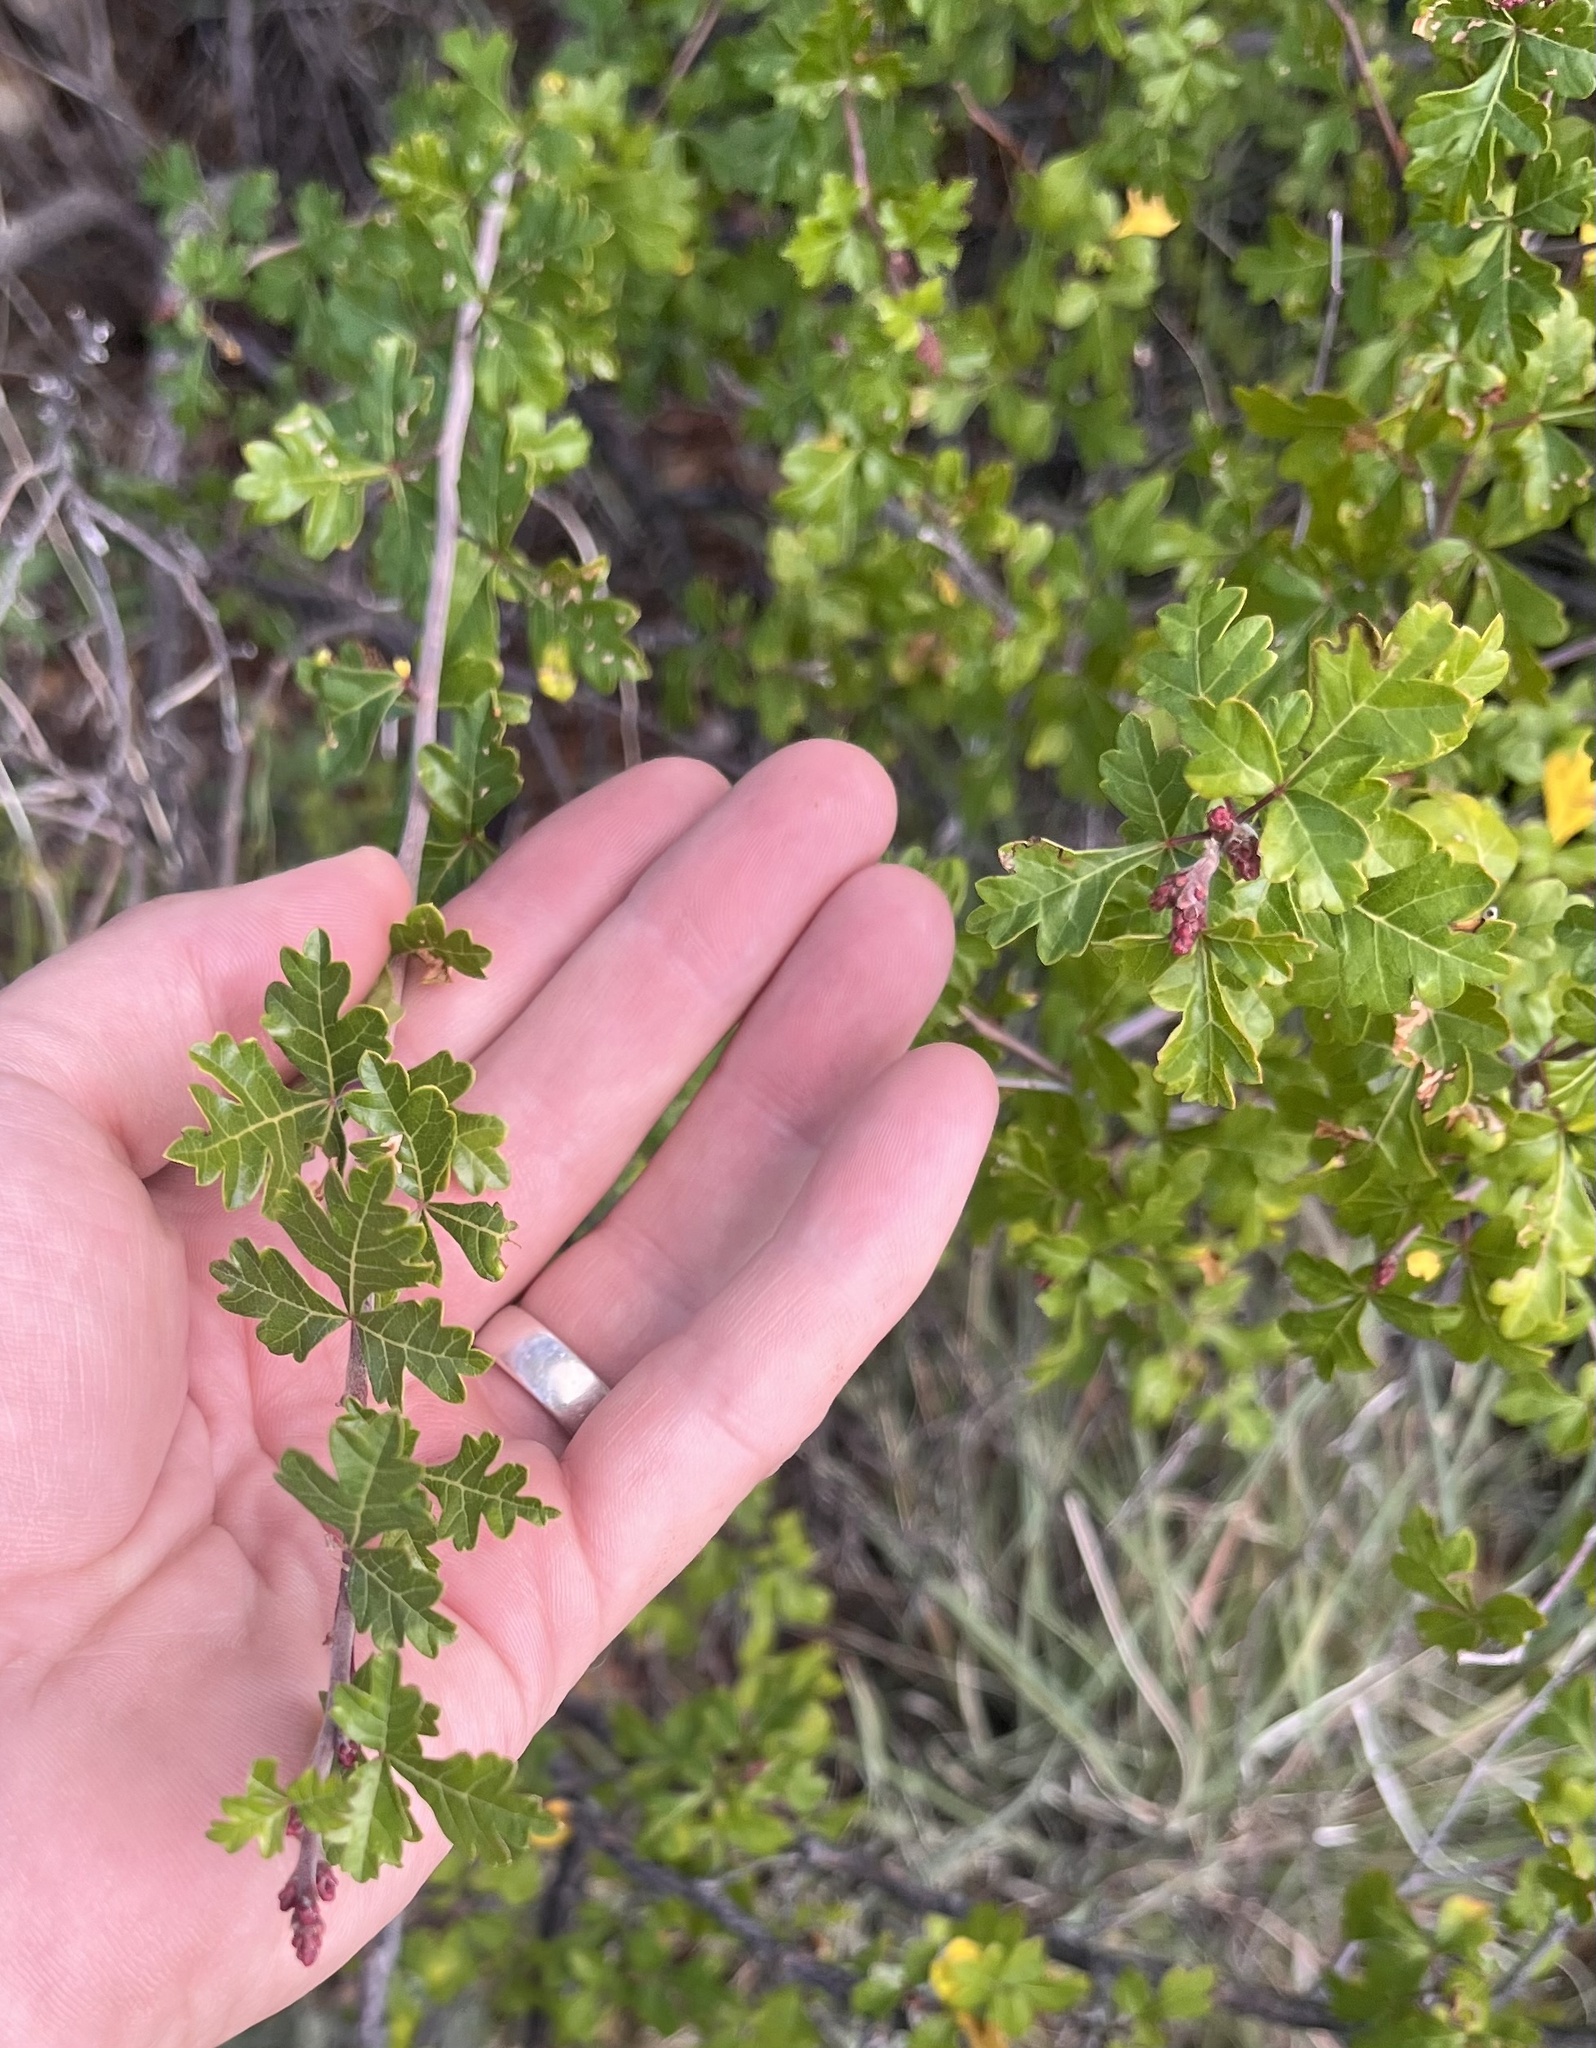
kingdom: Plantae
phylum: Tracheophyta
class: Magnoliopsida
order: Sapindales
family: Anacardiaceae
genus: Rhus
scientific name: Rhus aromatica
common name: Aromatic sumac
